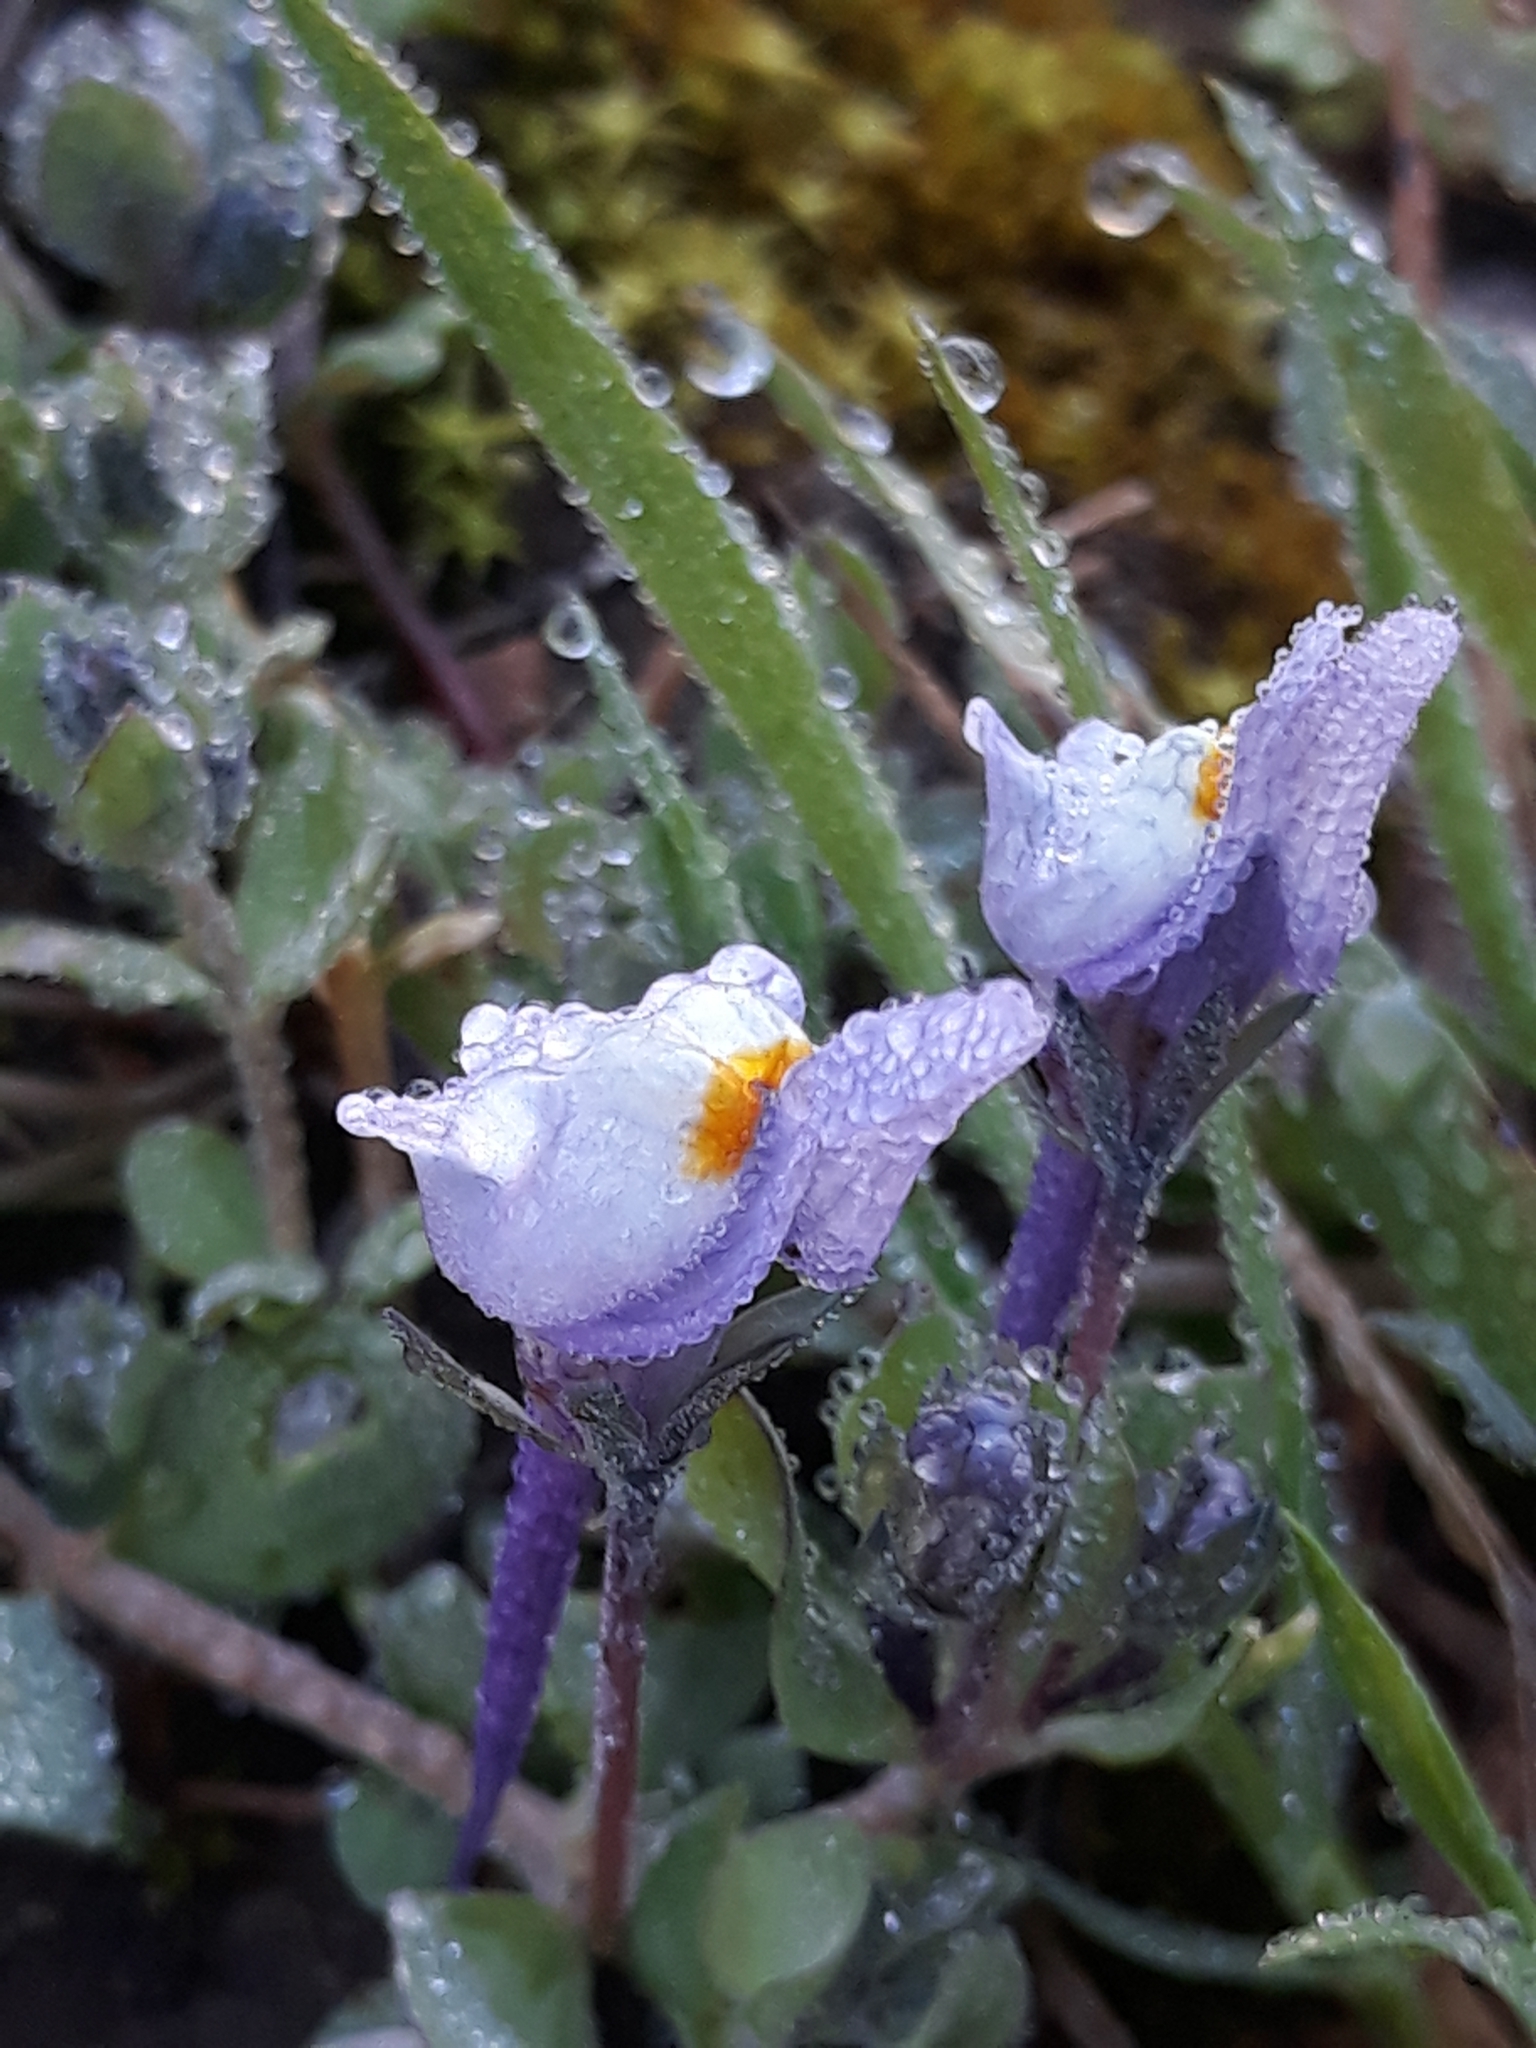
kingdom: Plantae
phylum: Tracheophyta
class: Magnoliopsida
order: Lamiales
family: Plantaginaceae
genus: Linaria
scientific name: Linaria reflexa
